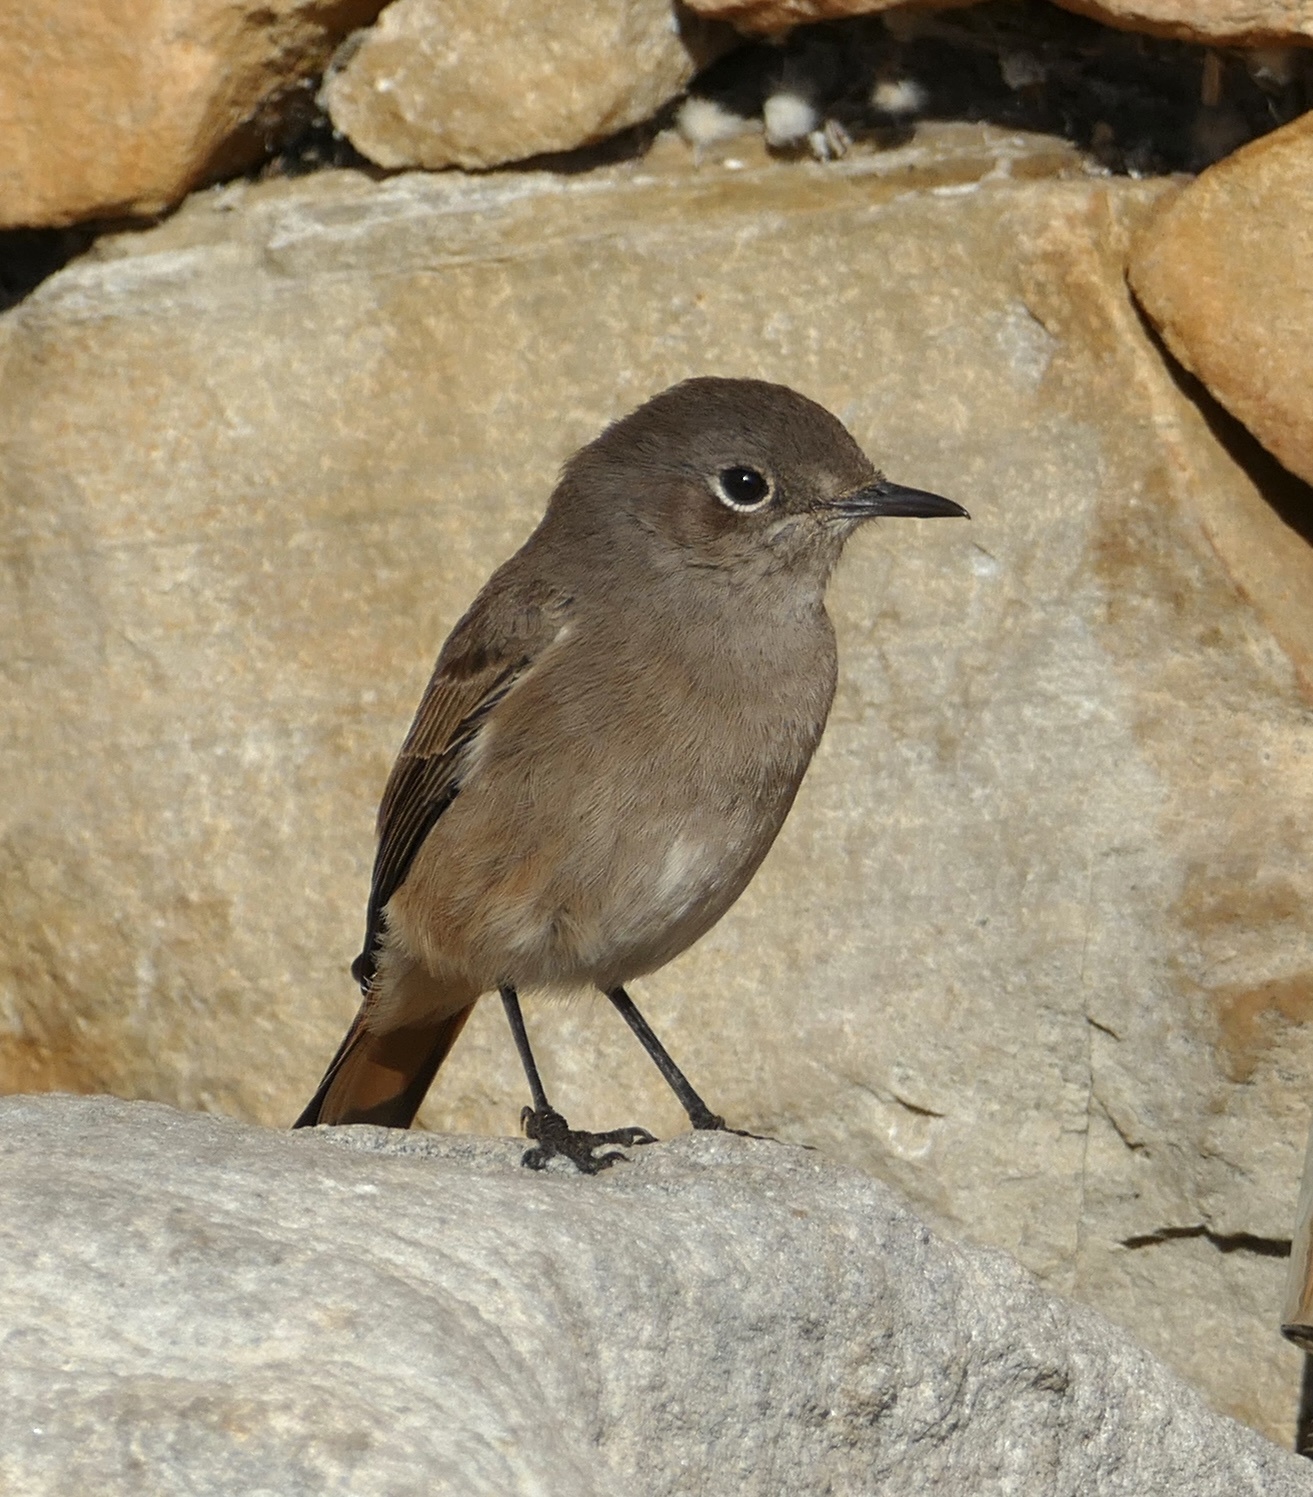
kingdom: Animalia
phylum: Chordata
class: Aves
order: Passeriformes
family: Muscicapidae
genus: Oenanthe
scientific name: Oenanthe familiaris
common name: Familiar chat
